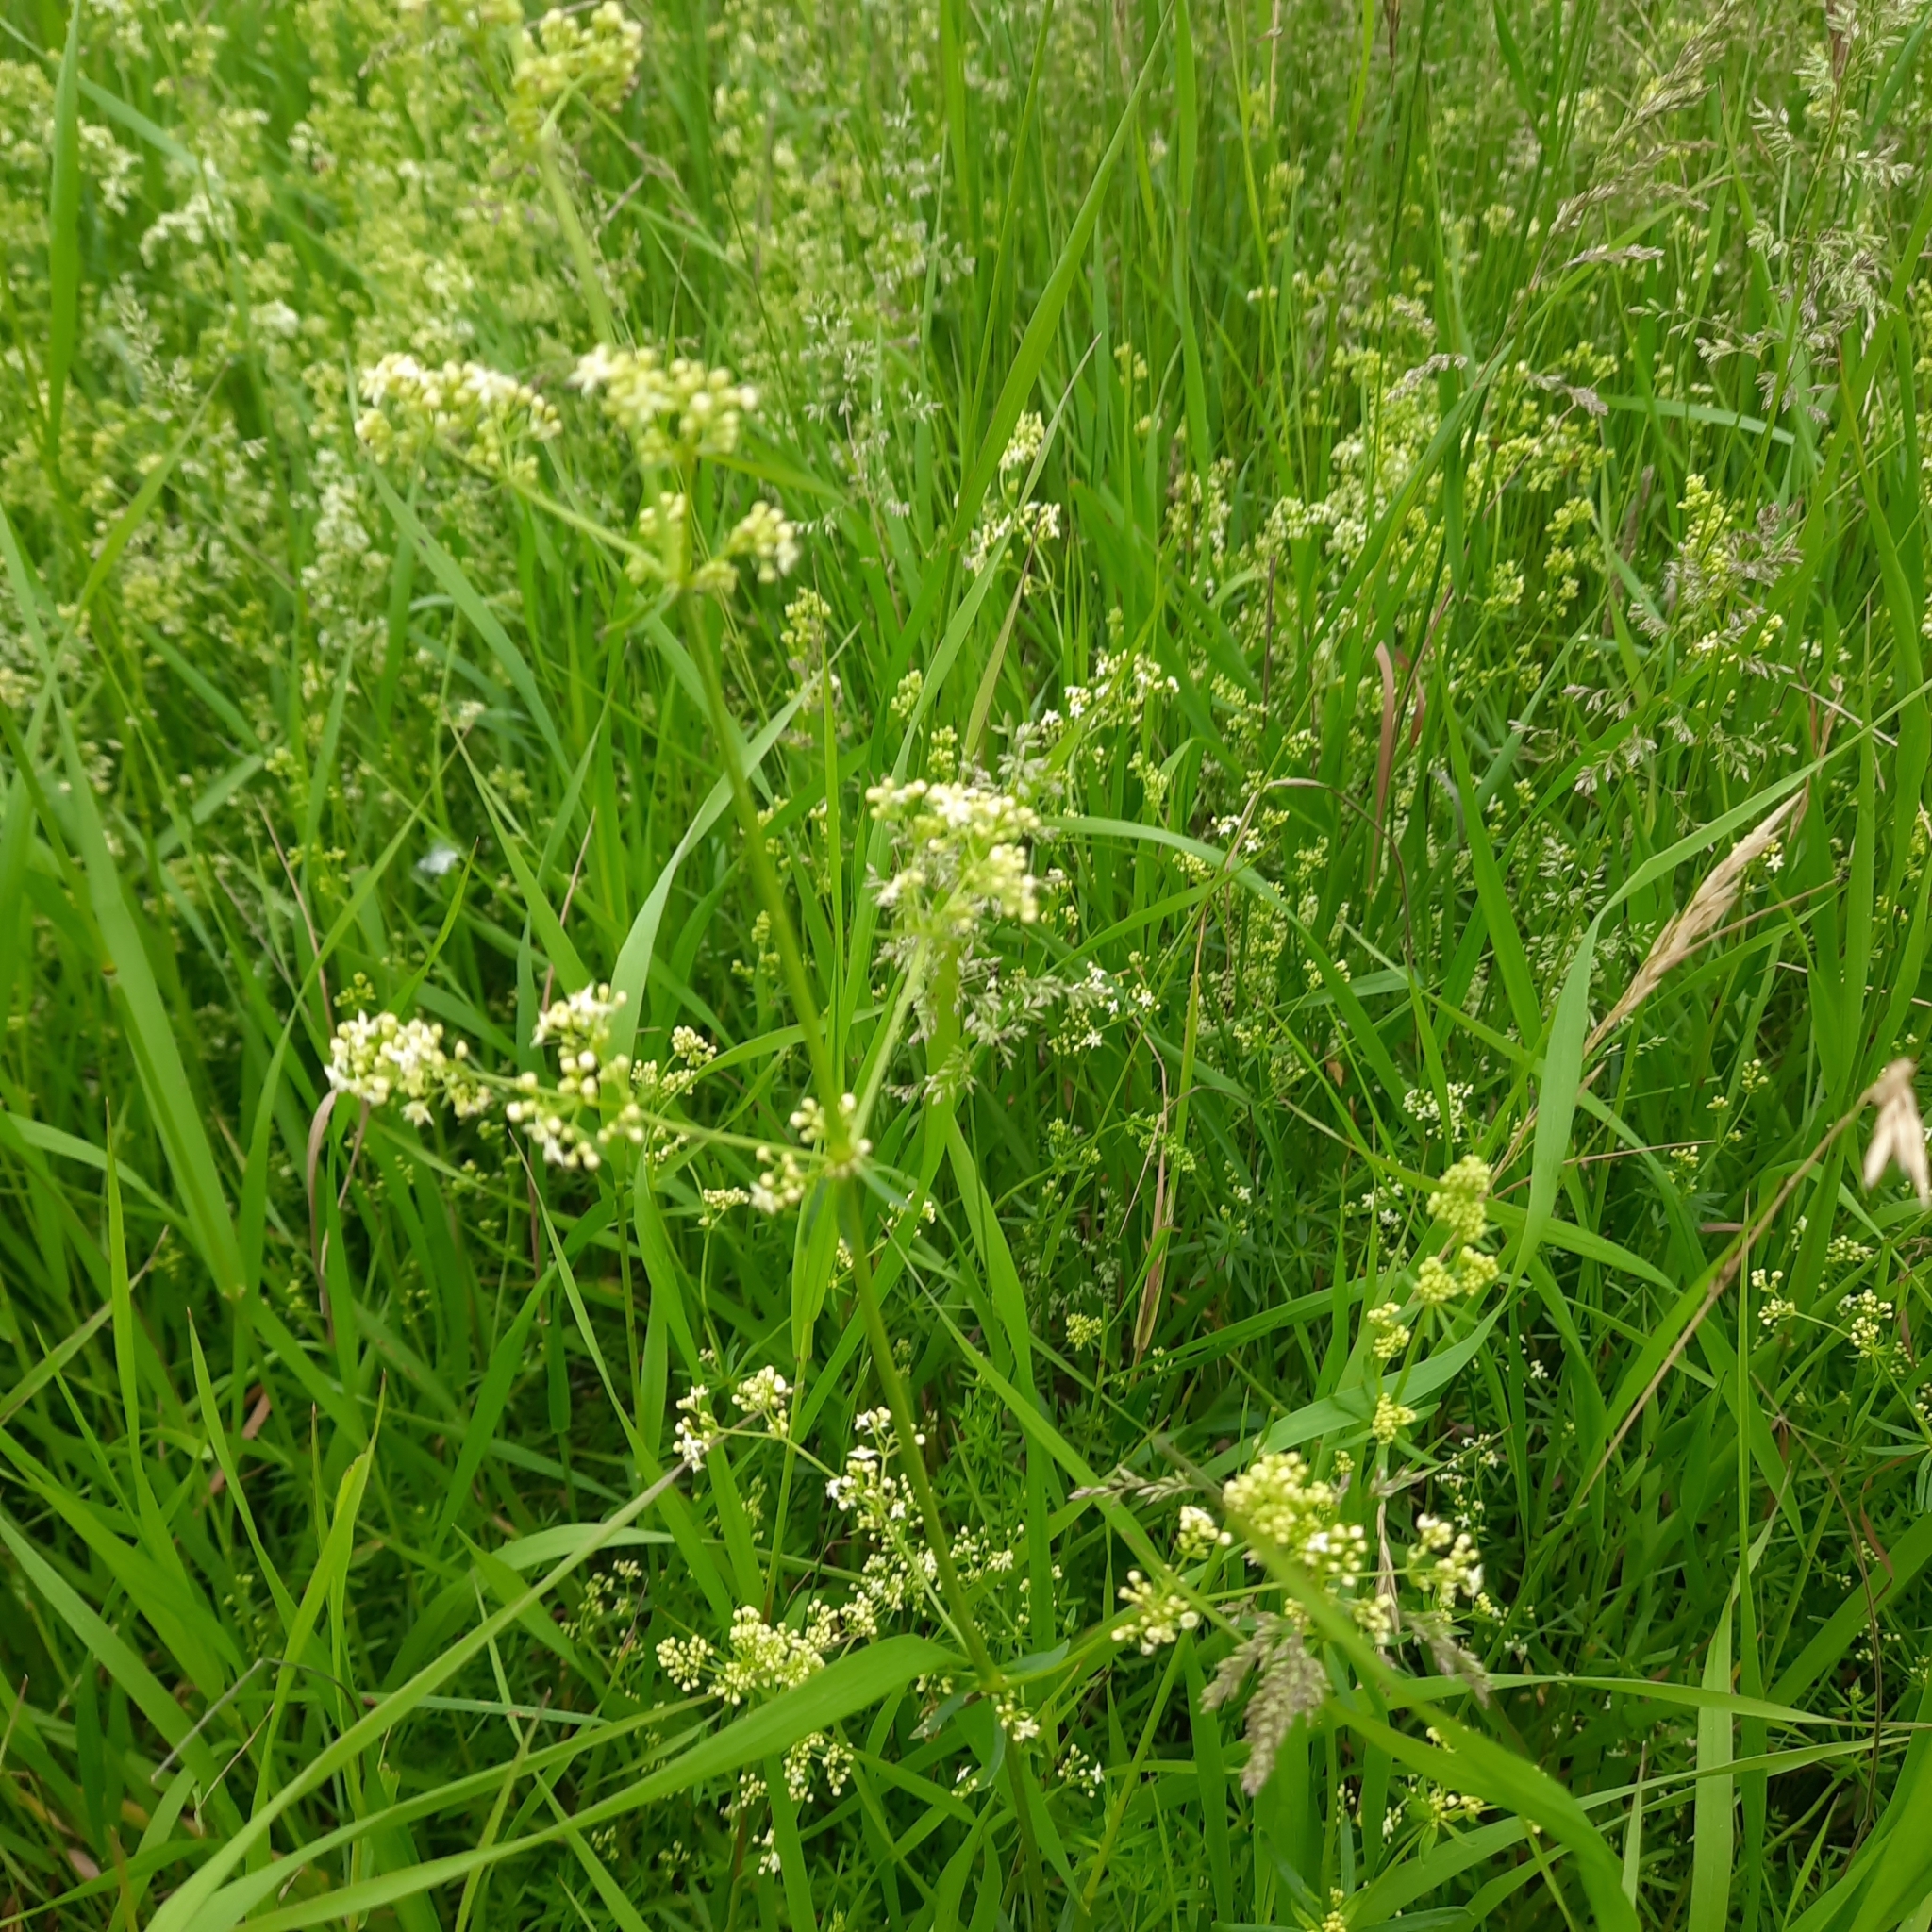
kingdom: Plantae
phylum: Tracheophyta
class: Magnoliopsida
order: Gentianales
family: Rubiaceae
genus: Galium
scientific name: Galium mollugo
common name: Hedge bedstraw
